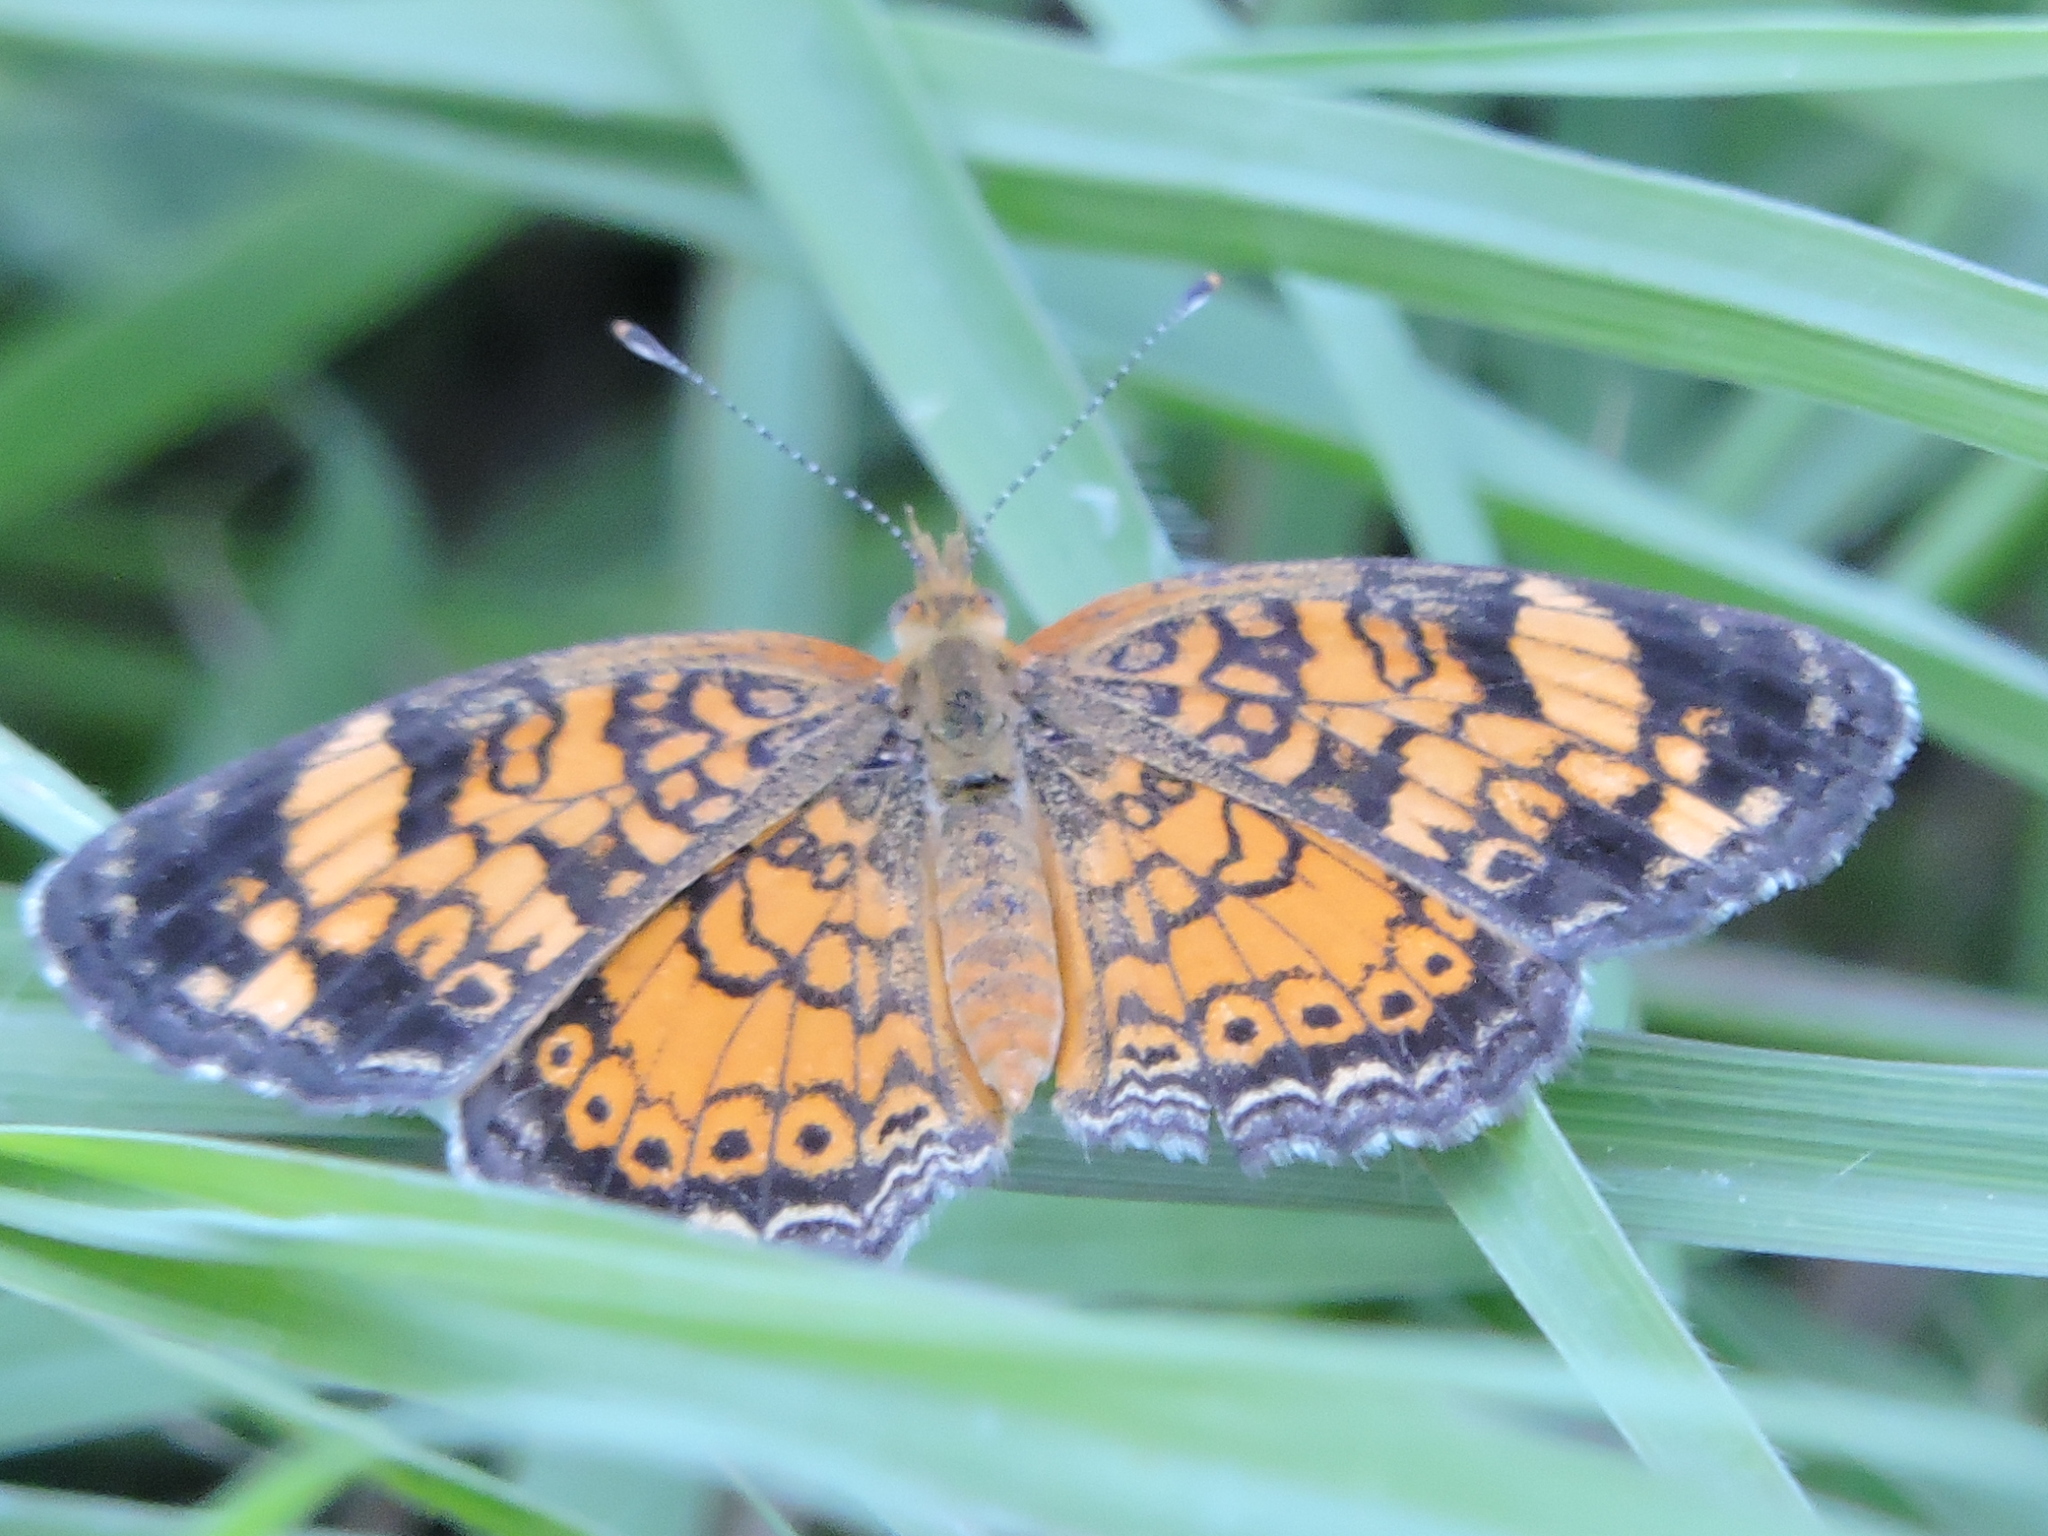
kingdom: Animalia
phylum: Arthropoda
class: Insecta
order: Lepidoptera
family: Nymphalidae
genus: Phyciodes
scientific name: Phyciodes tharos
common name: Pearl crescent
